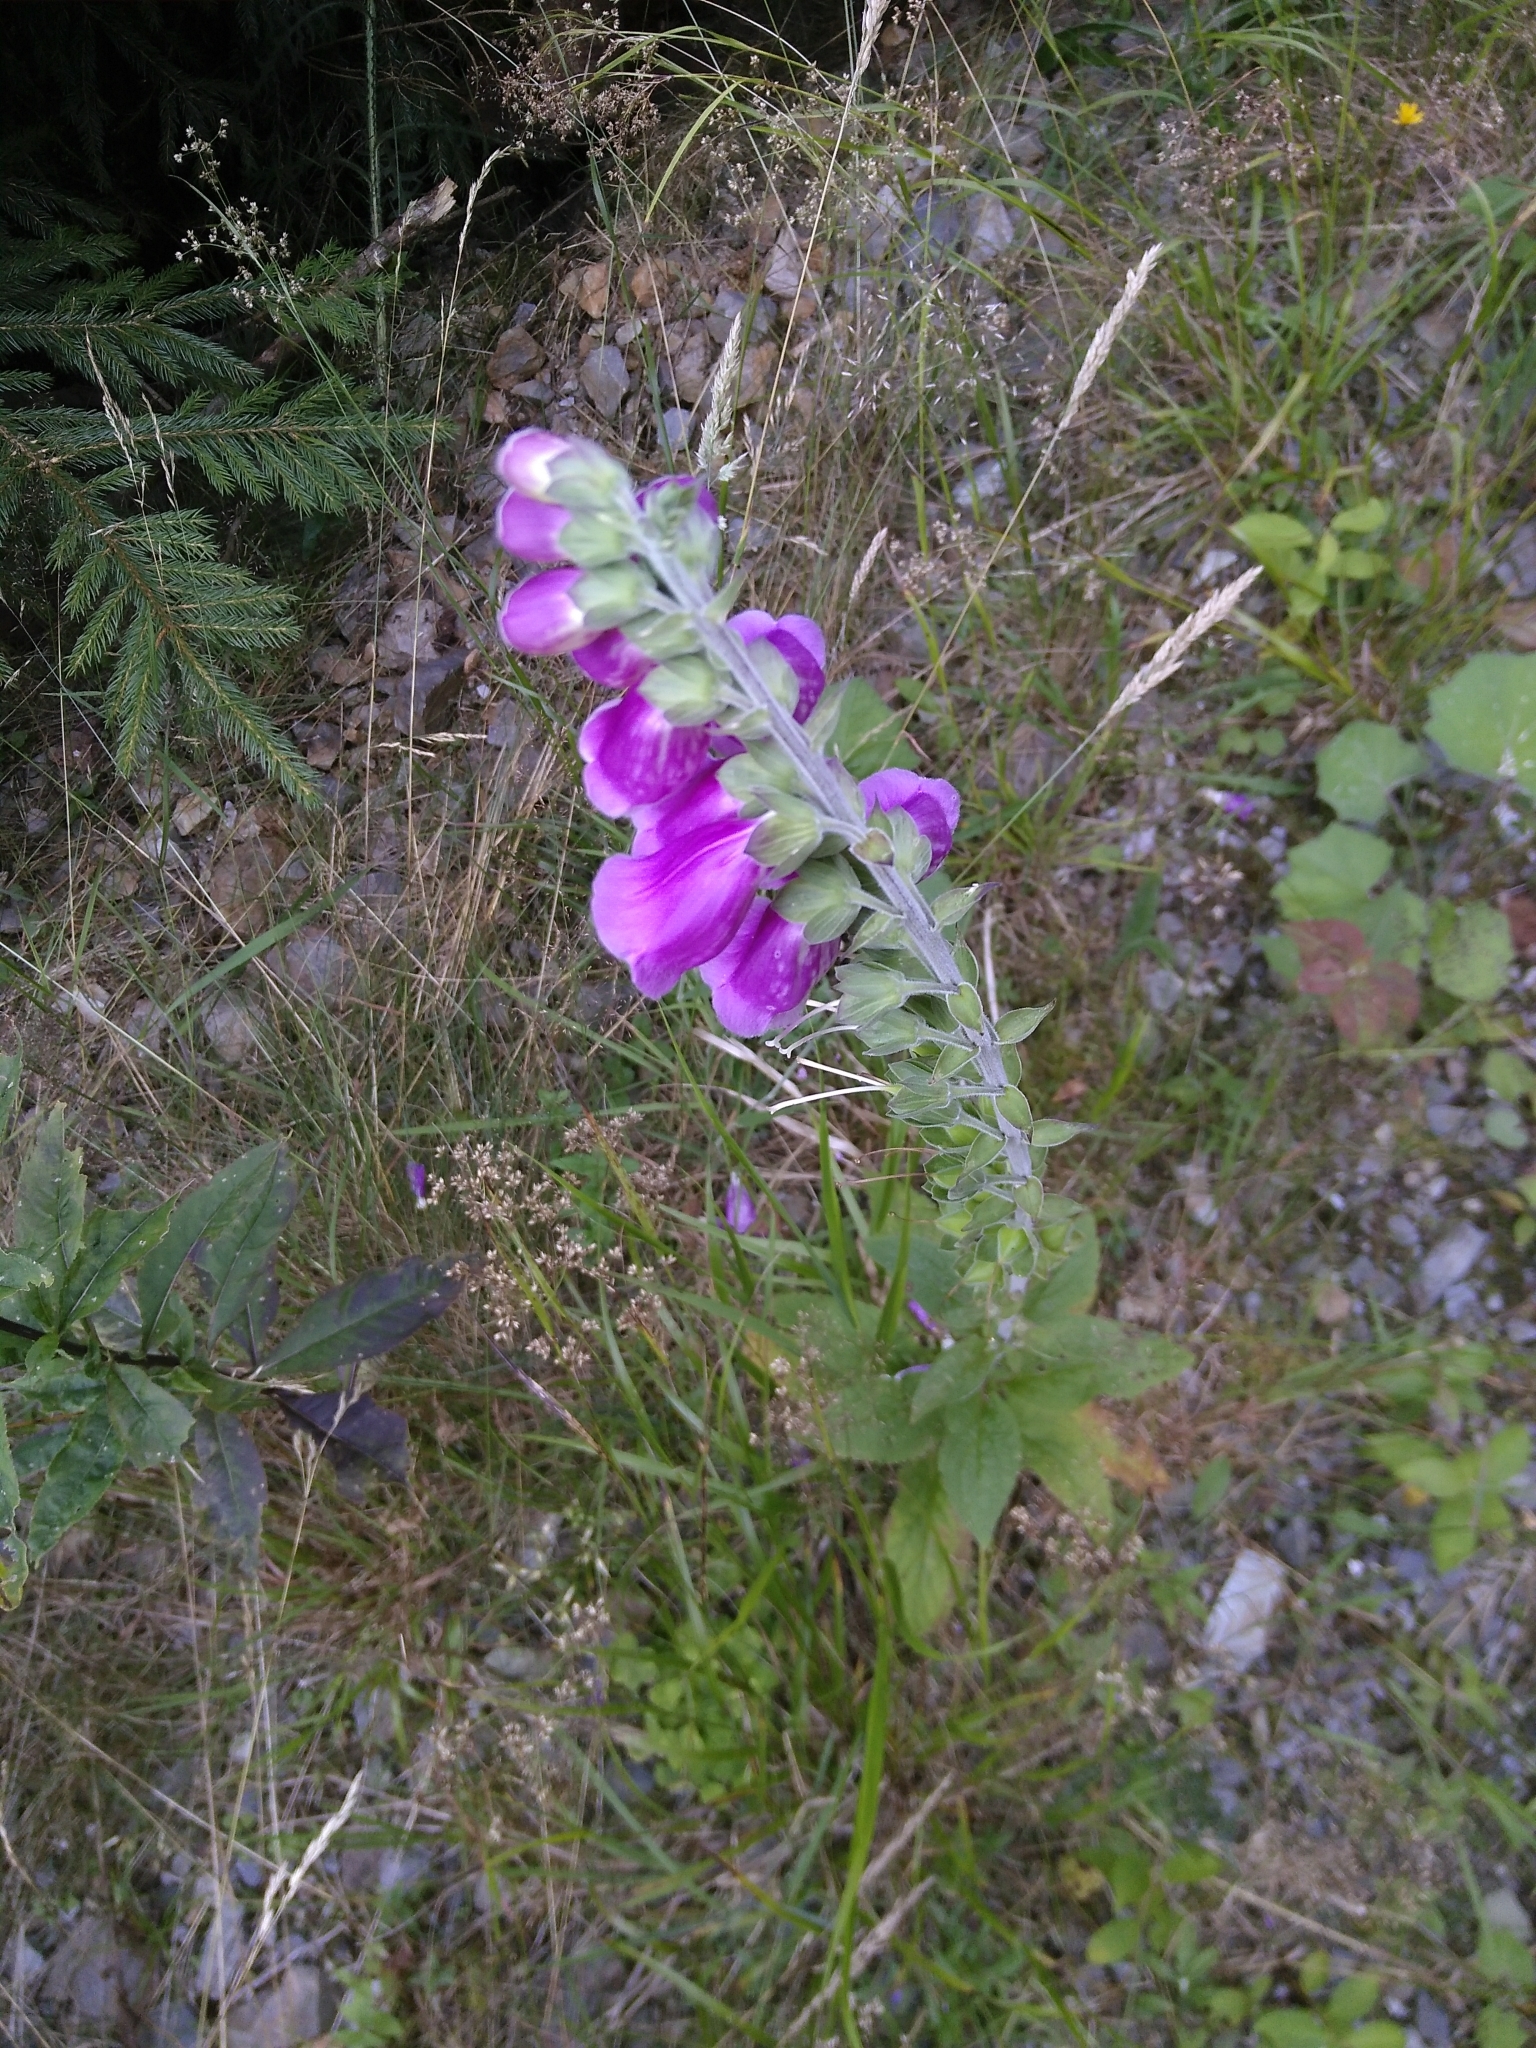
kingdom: Plantae
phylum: Tracheophyta
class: Magnoliopsida
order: Lamiales
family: Plantaginaceae
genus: Digitalis
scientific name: Digitalis purpurea
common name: Foxglove
